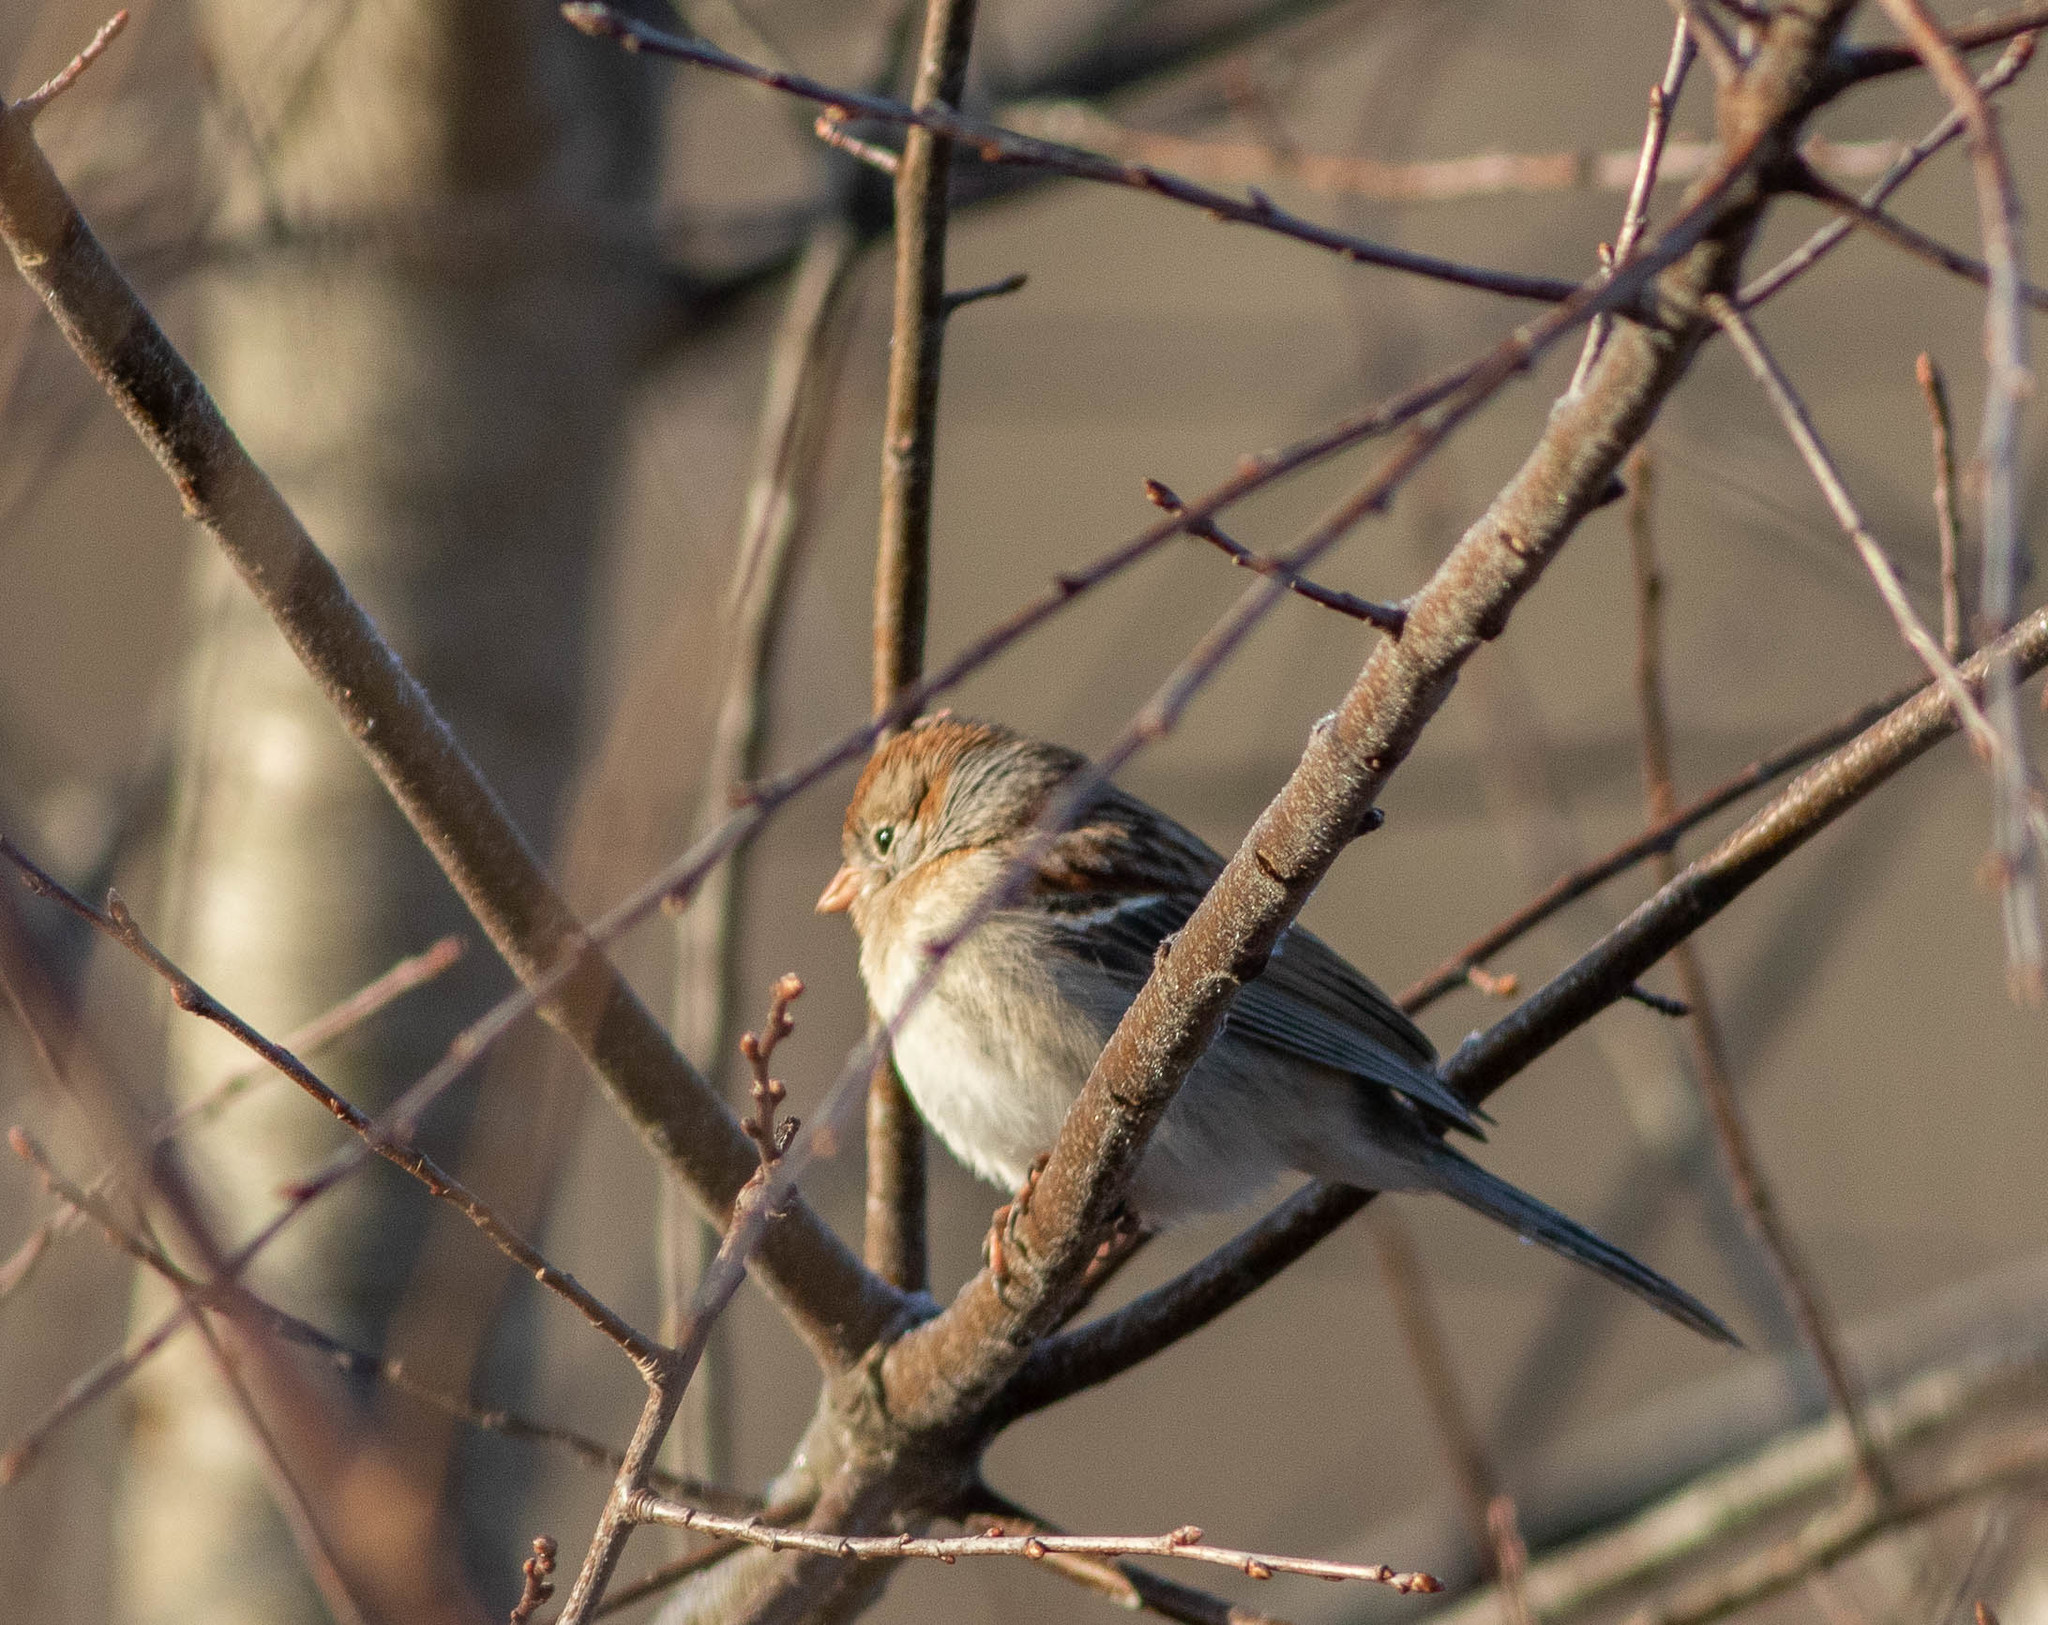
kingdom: Animalia
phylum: Chordata
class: Aves
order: Passeriformes
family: Passerellidae
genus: Spizella
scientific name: Spizella pusilla
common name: Field sparrow
